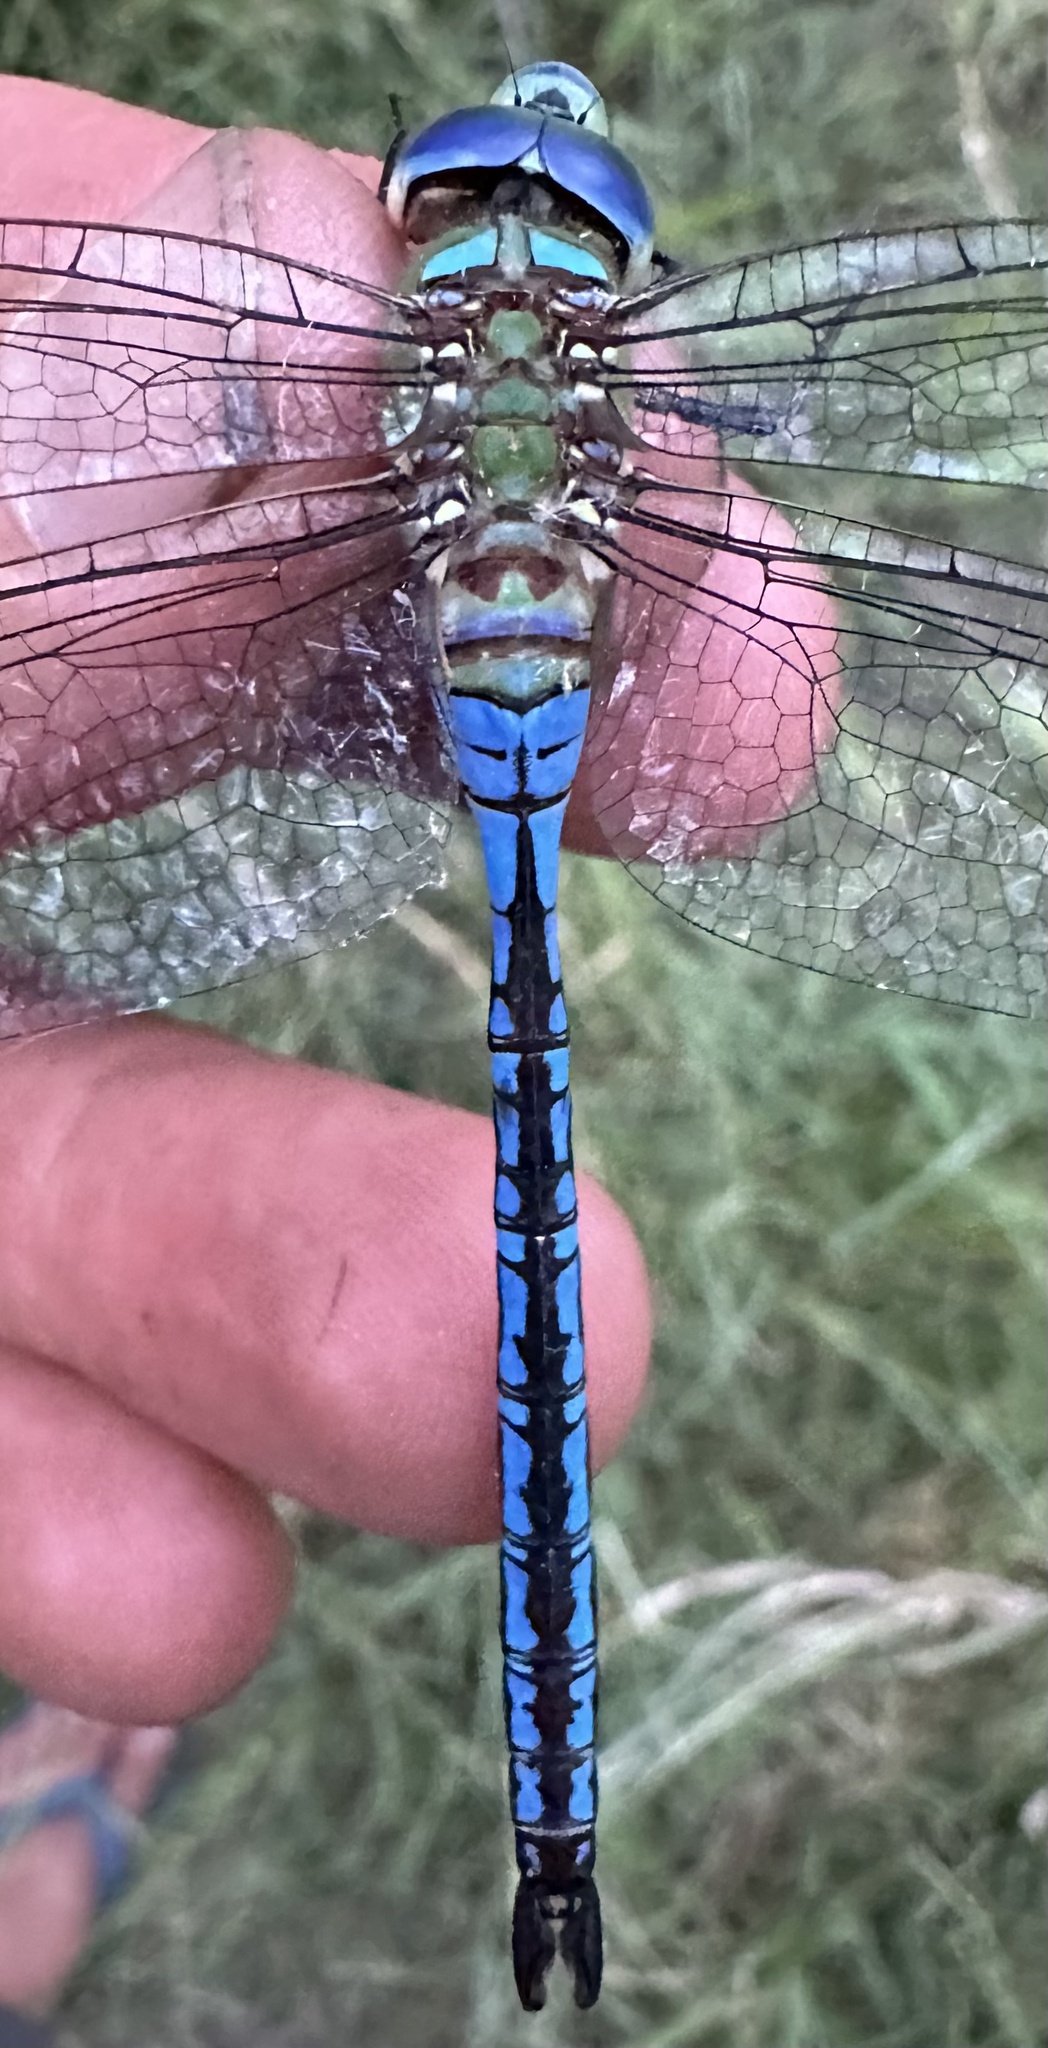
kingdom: Animalia
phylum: Arthropoda
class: Insecta
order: Odonata
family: Aeshnidae
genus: Anax
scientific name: Anax imperator
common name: Emperor dragonfly
